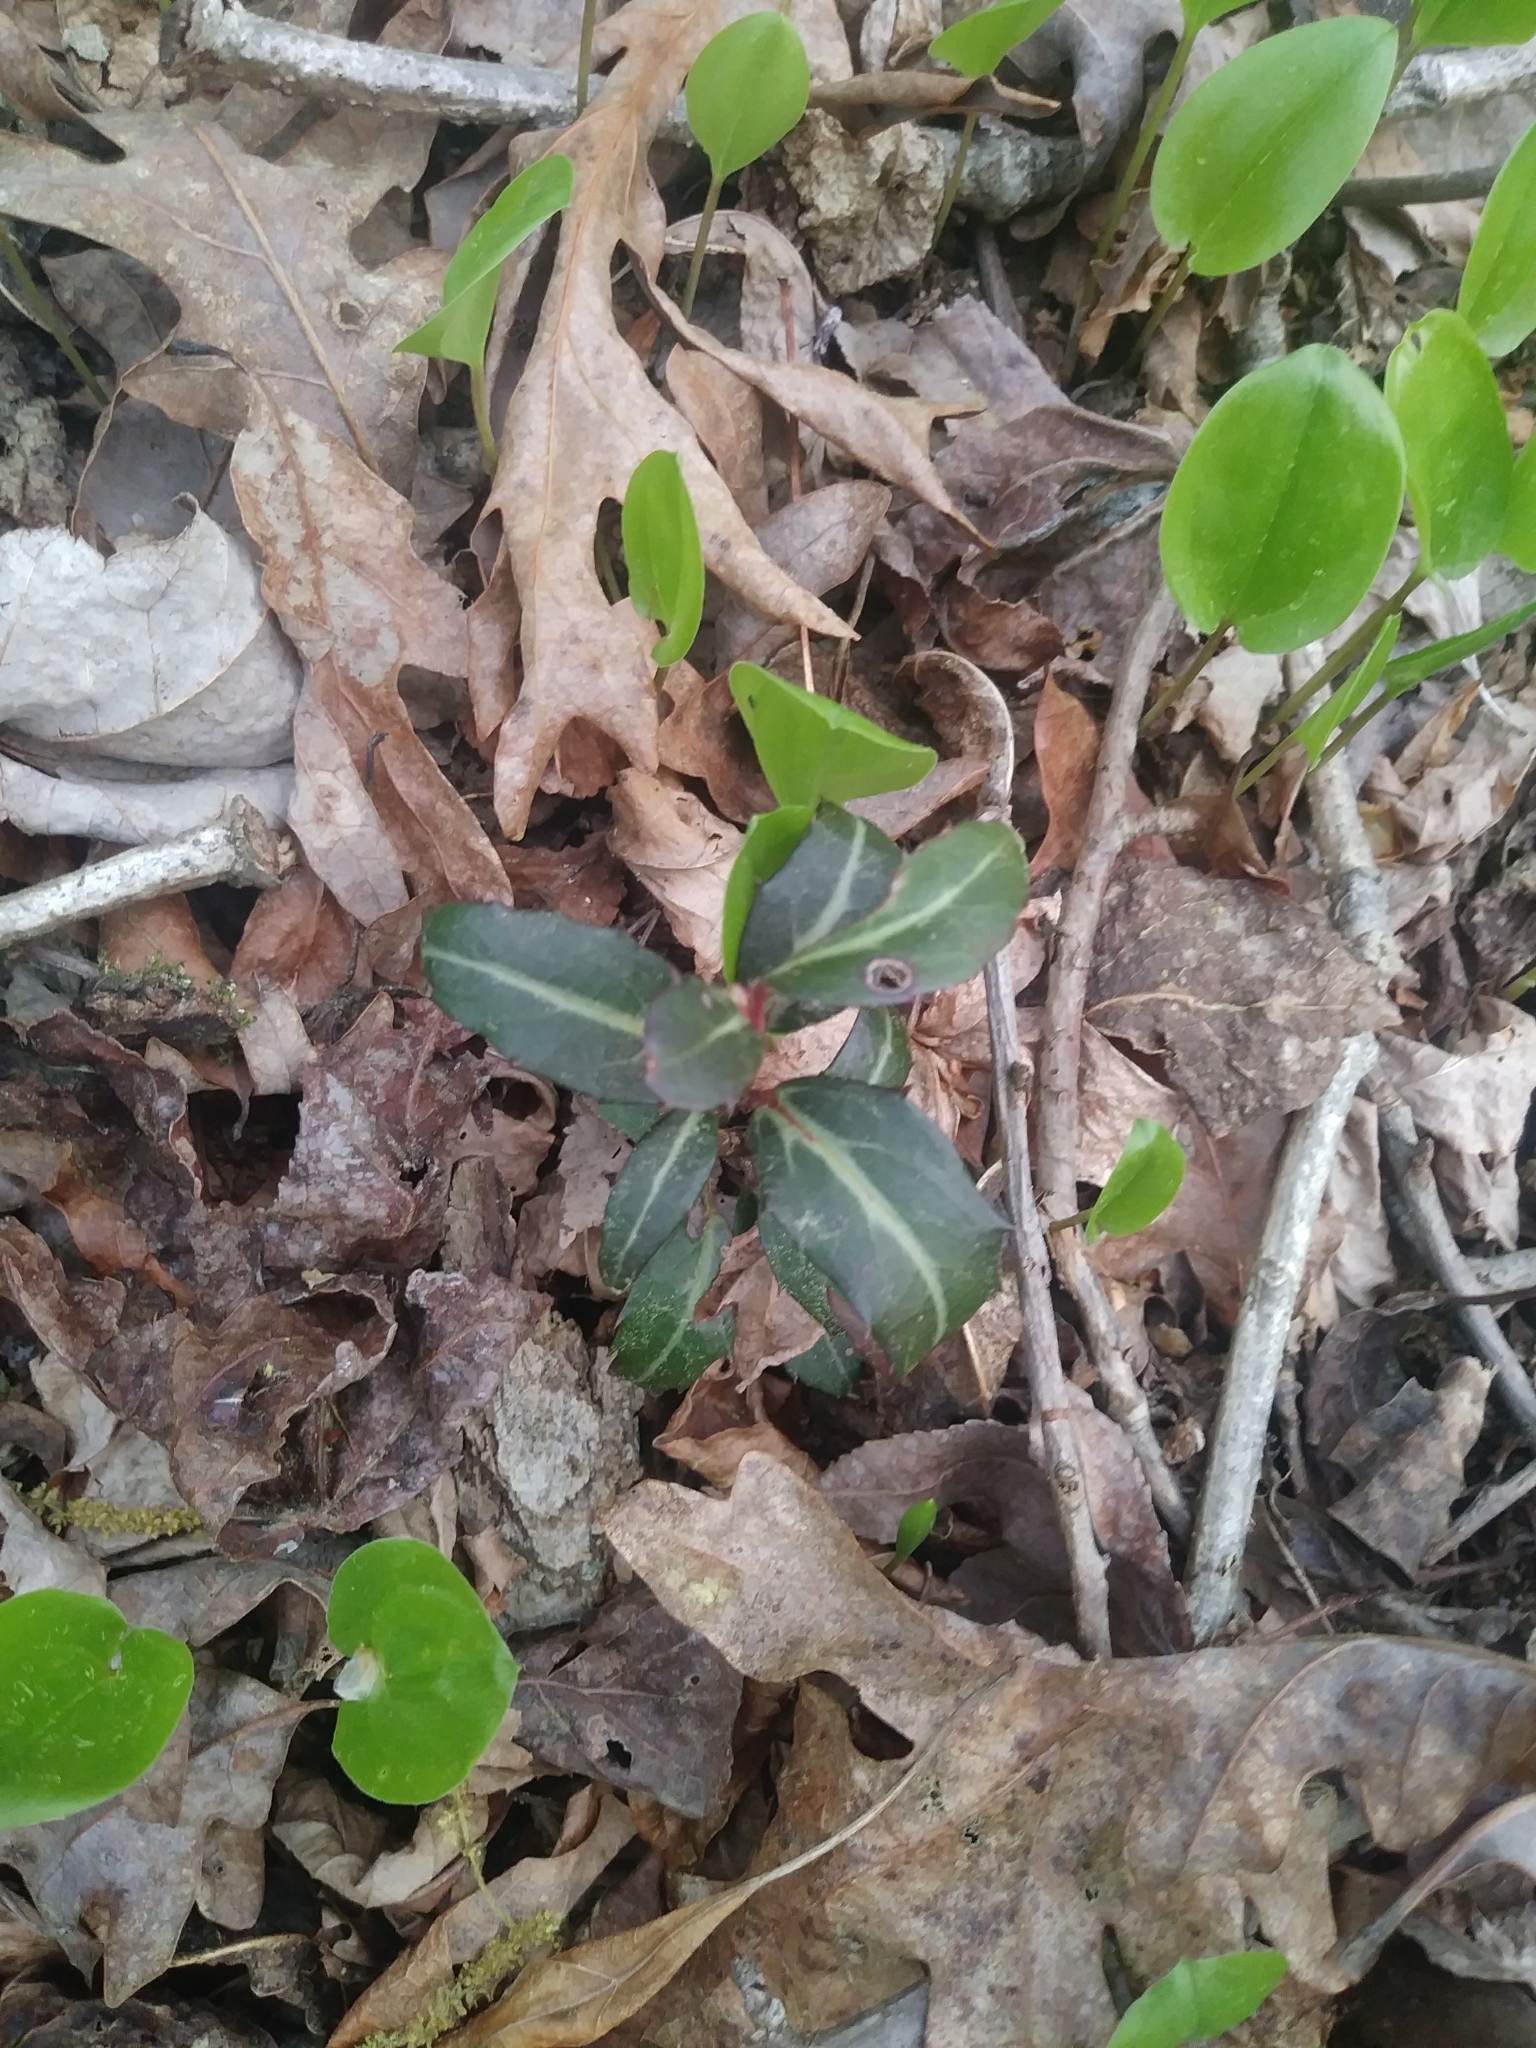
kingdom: Plantae
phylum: Tracheophyta
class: Magnoliopsida
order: Ericales
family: Ericaceae
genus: Chimaphila
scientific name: Chimaphila maculata
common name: Spotted pipsissewa
